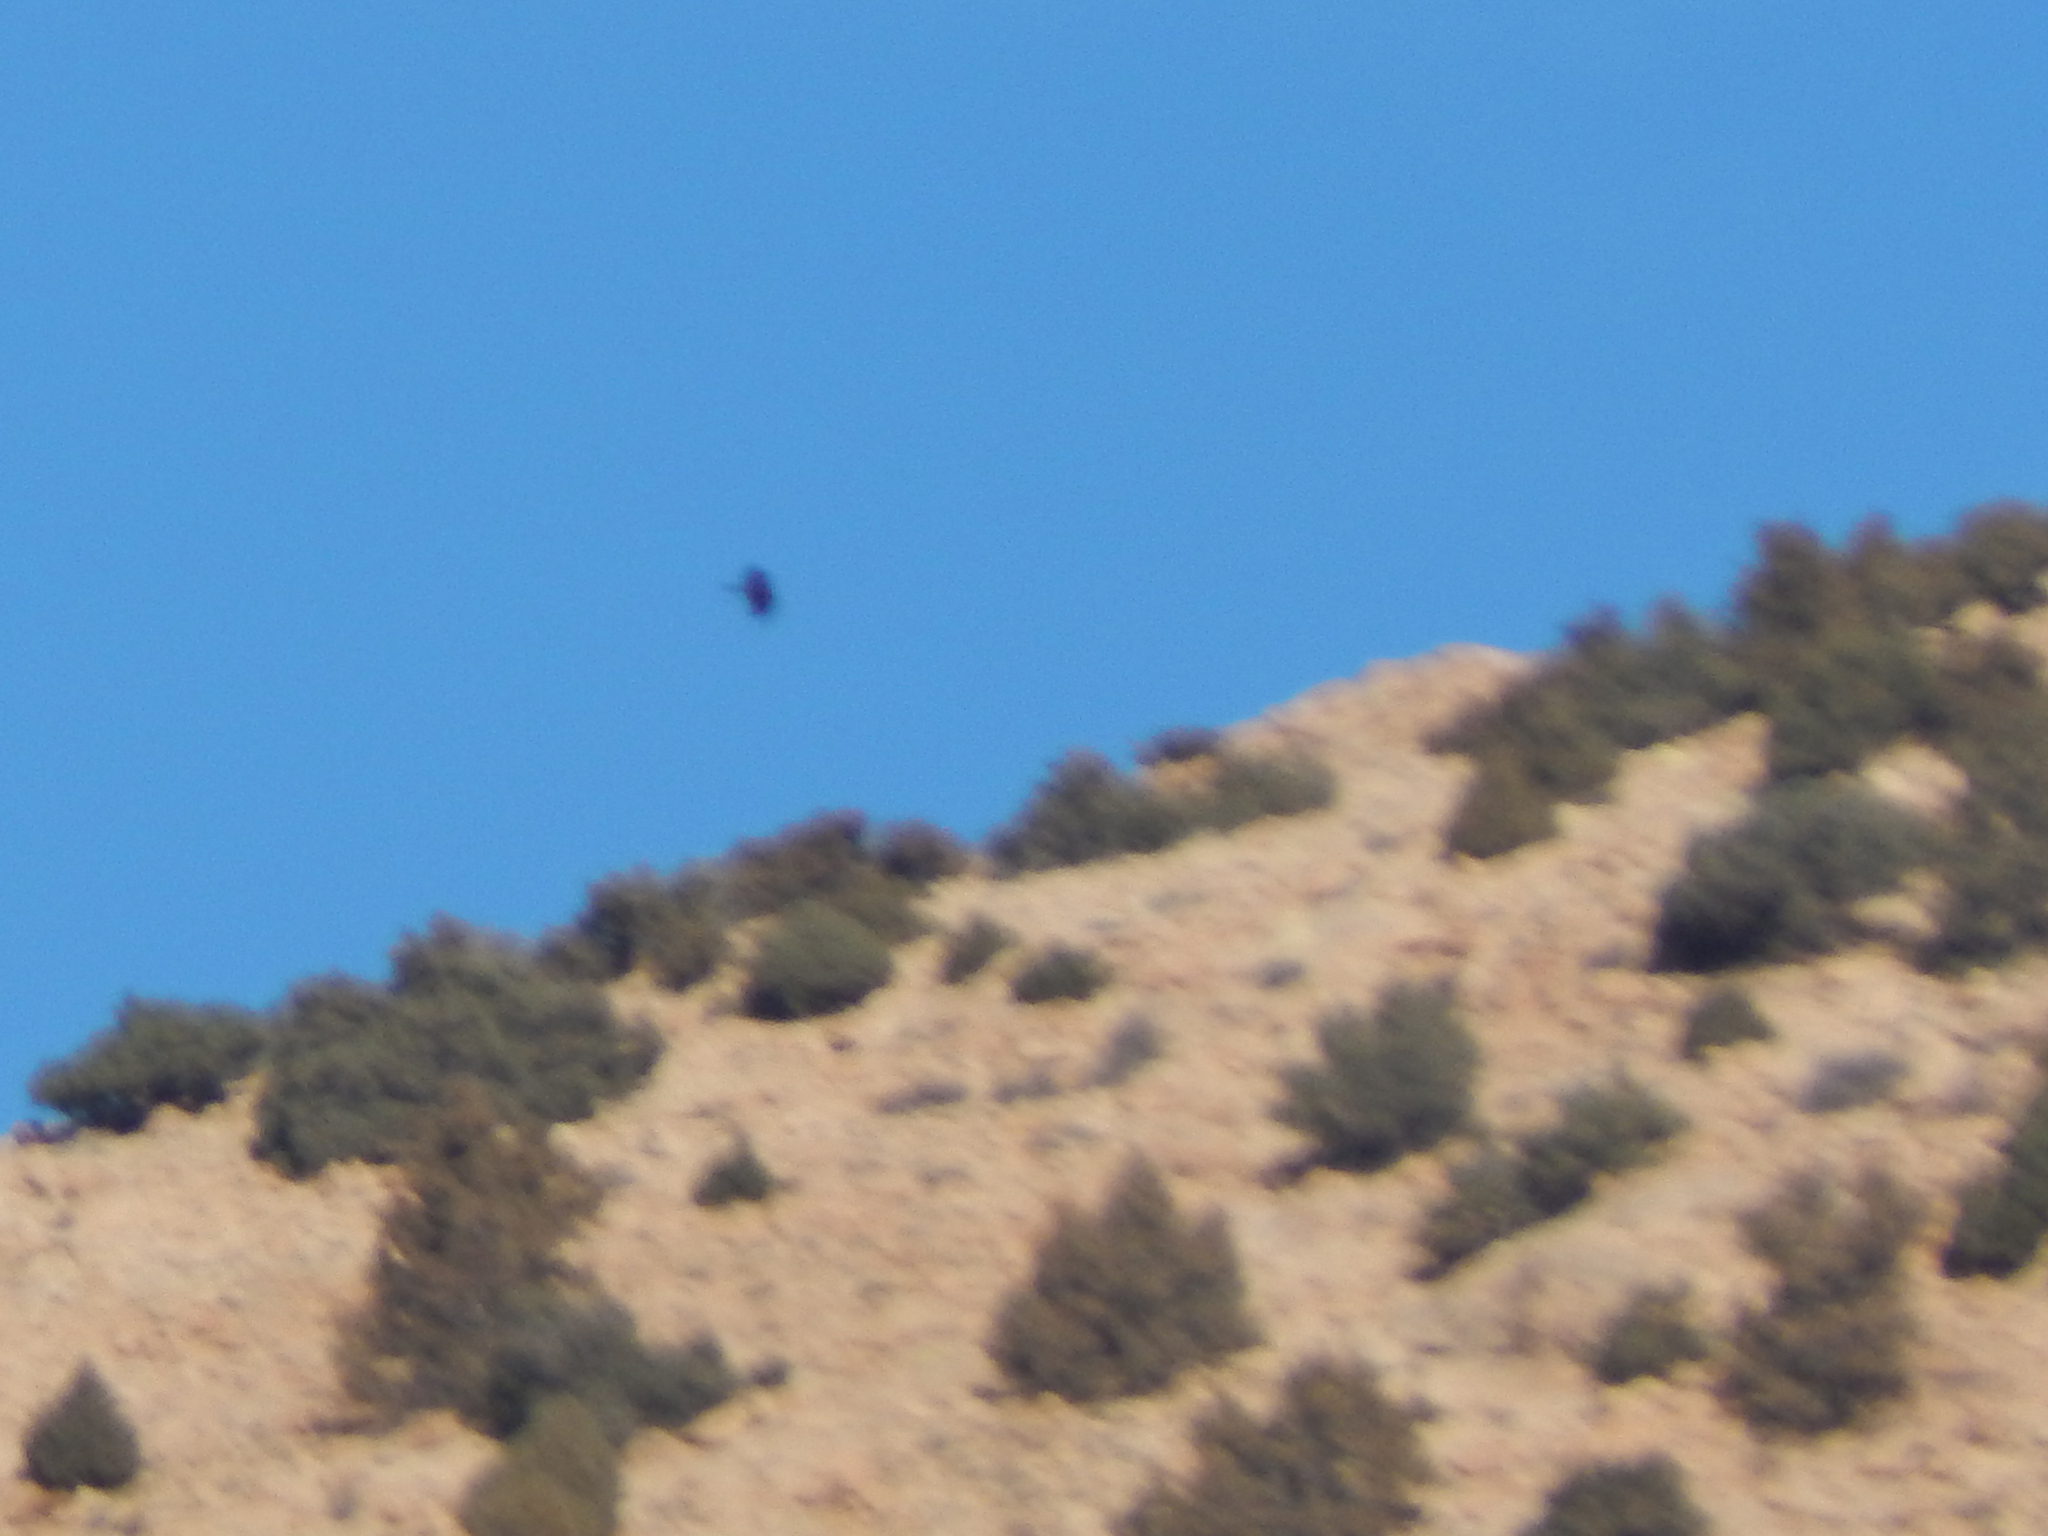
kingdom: Animalia
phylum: Chordata
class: Aves
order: Accipitriformes
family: Accipitridae
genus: Gypaetus
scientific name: Gypaetus barbatus
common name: Bearded vulture
